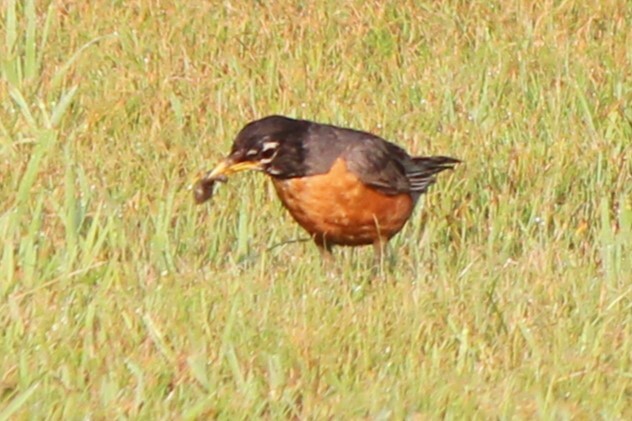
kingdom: Animalia
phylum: Chordata
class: Aves
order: Passeriformes
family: Turdidae
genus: Turdus
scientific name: Turdus migratorius
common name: American robin
